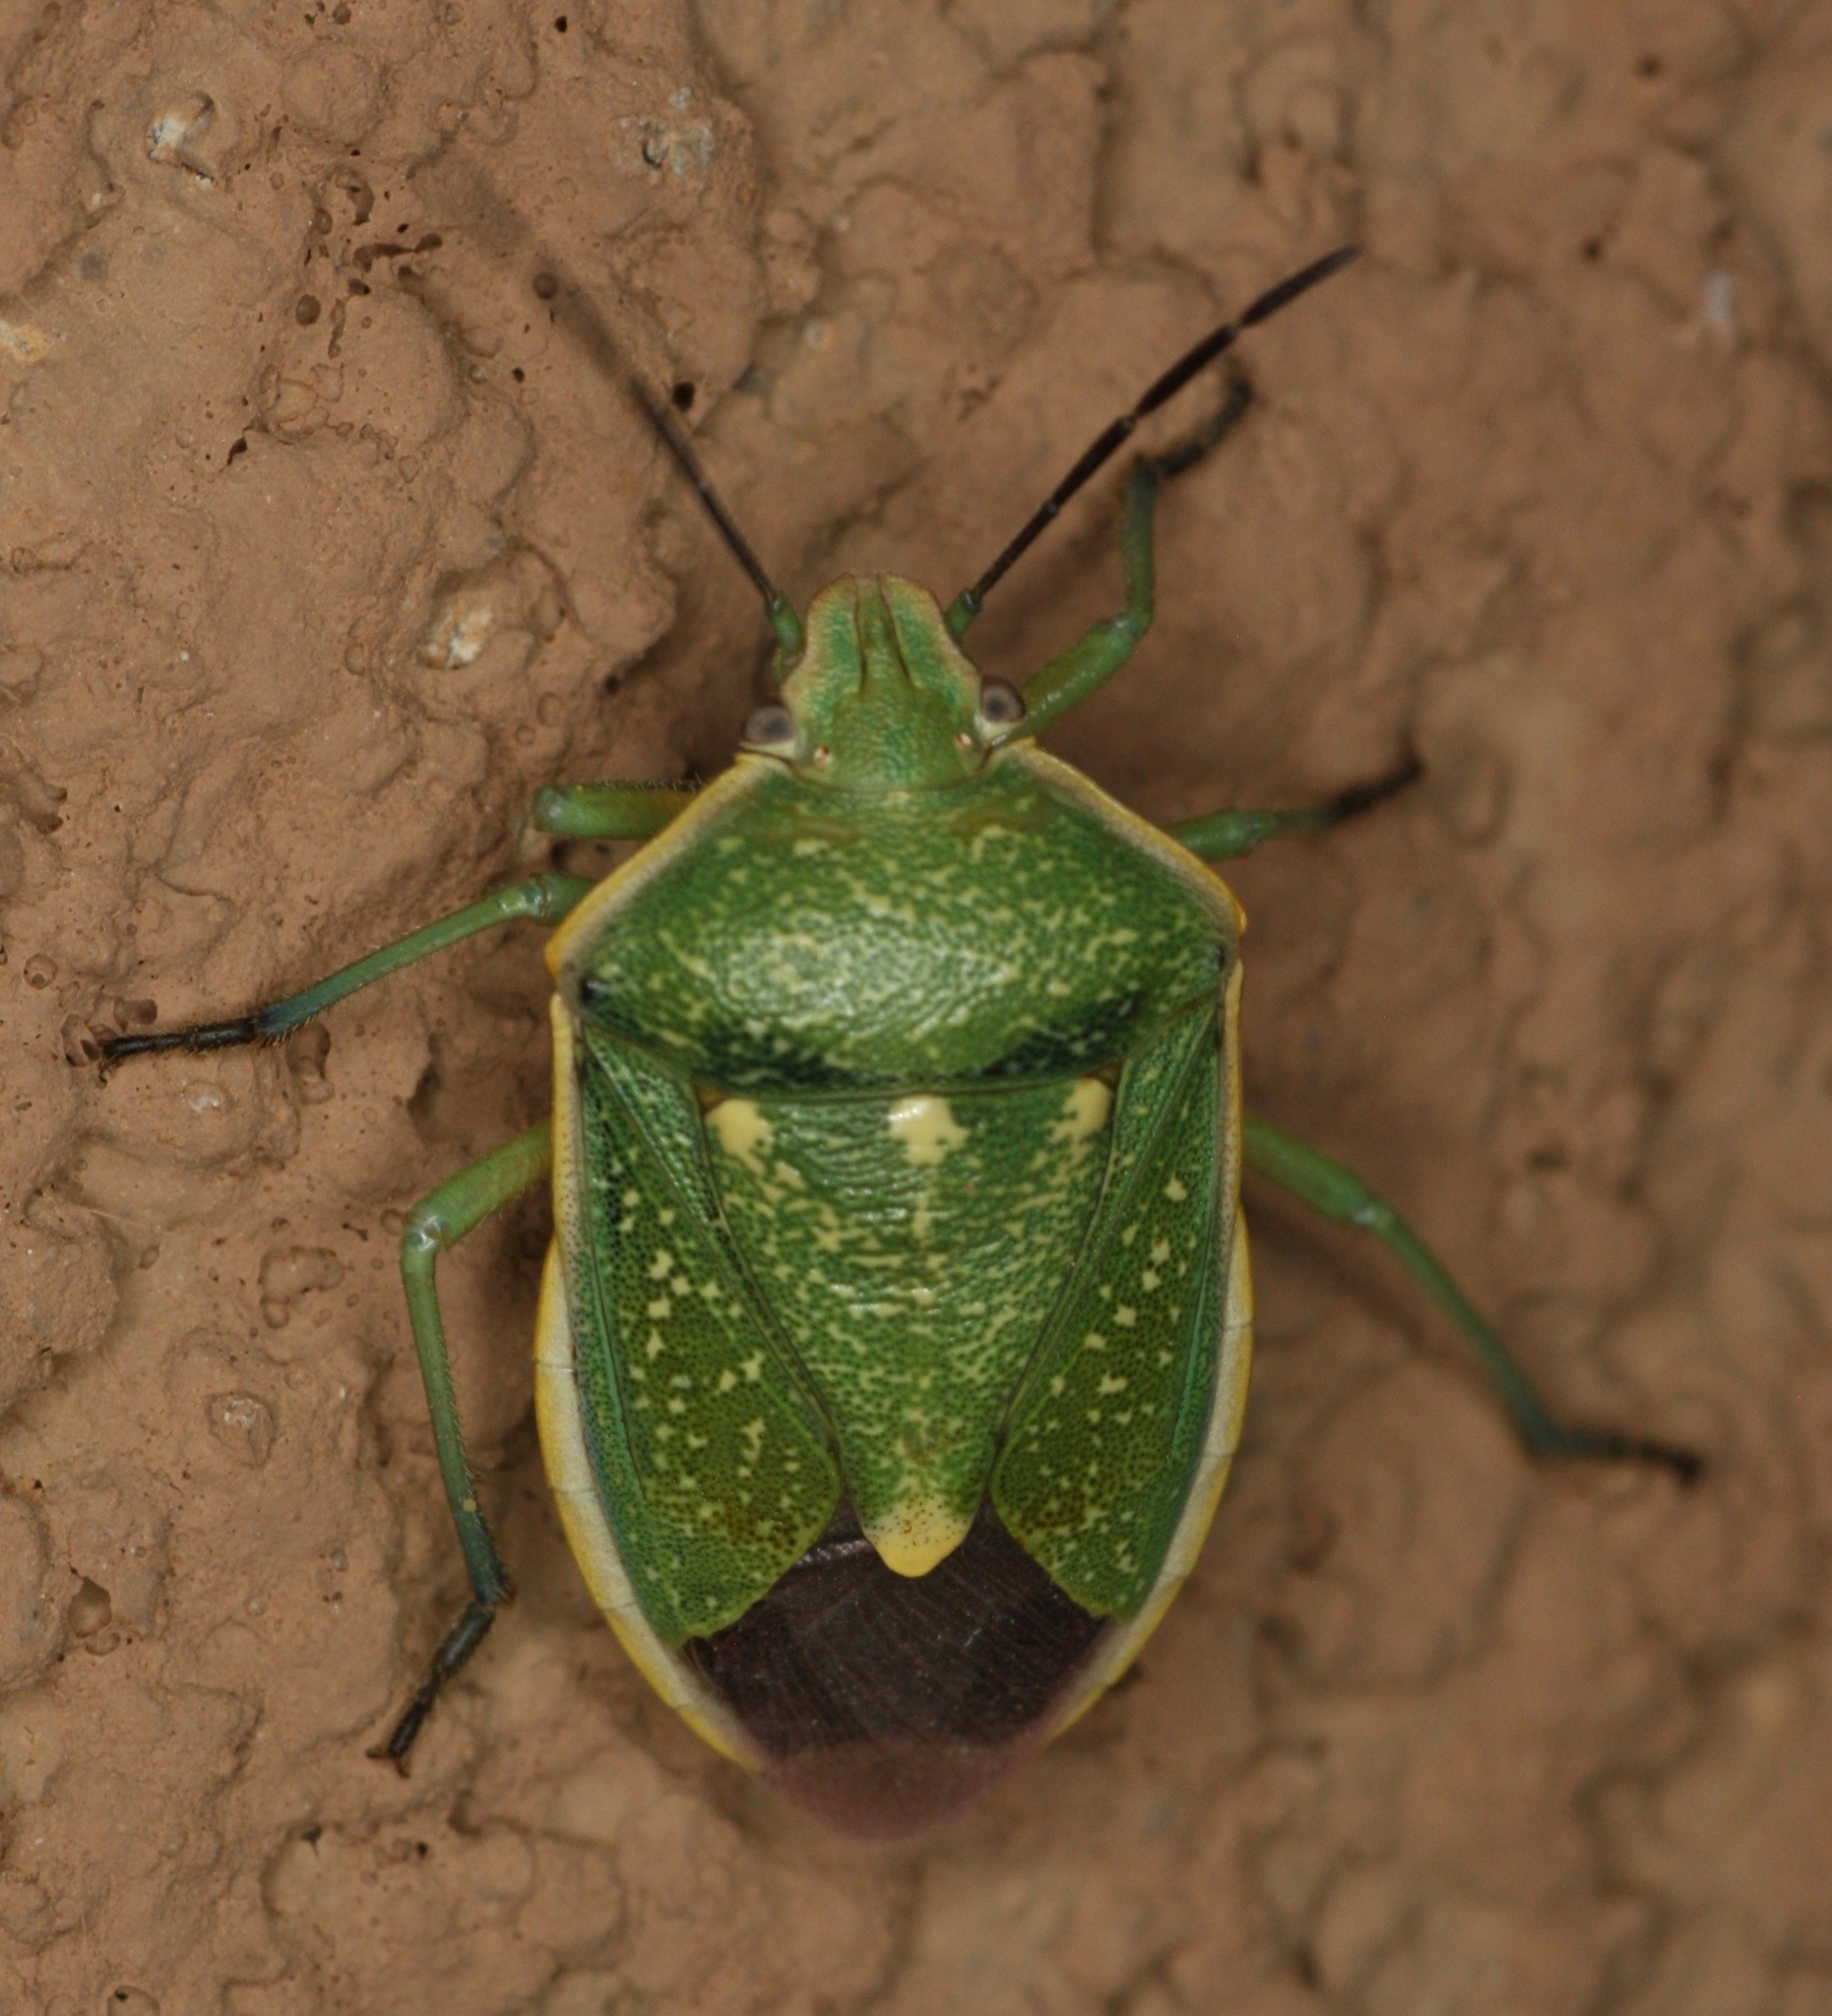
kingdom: Animalia
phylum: Arthropoda
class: Insecta
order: Hemiptera
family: Pentatomidae
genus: Chlorochroa
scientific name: Chlorochroa sayi
